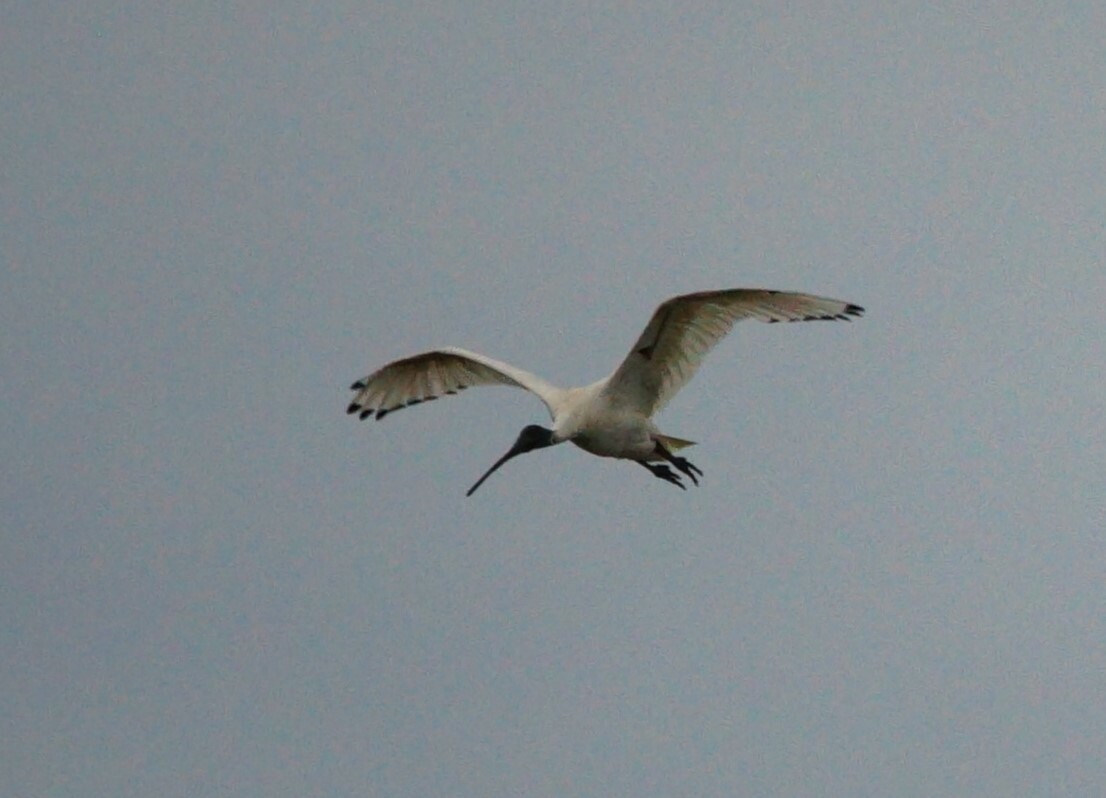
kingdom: Animalia
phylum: Chordata
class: Aves
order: Pelecaniformes
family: Threskiornithidae
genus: Threskiornis
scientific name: Threskiornis molucca
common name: Australian white ibis
